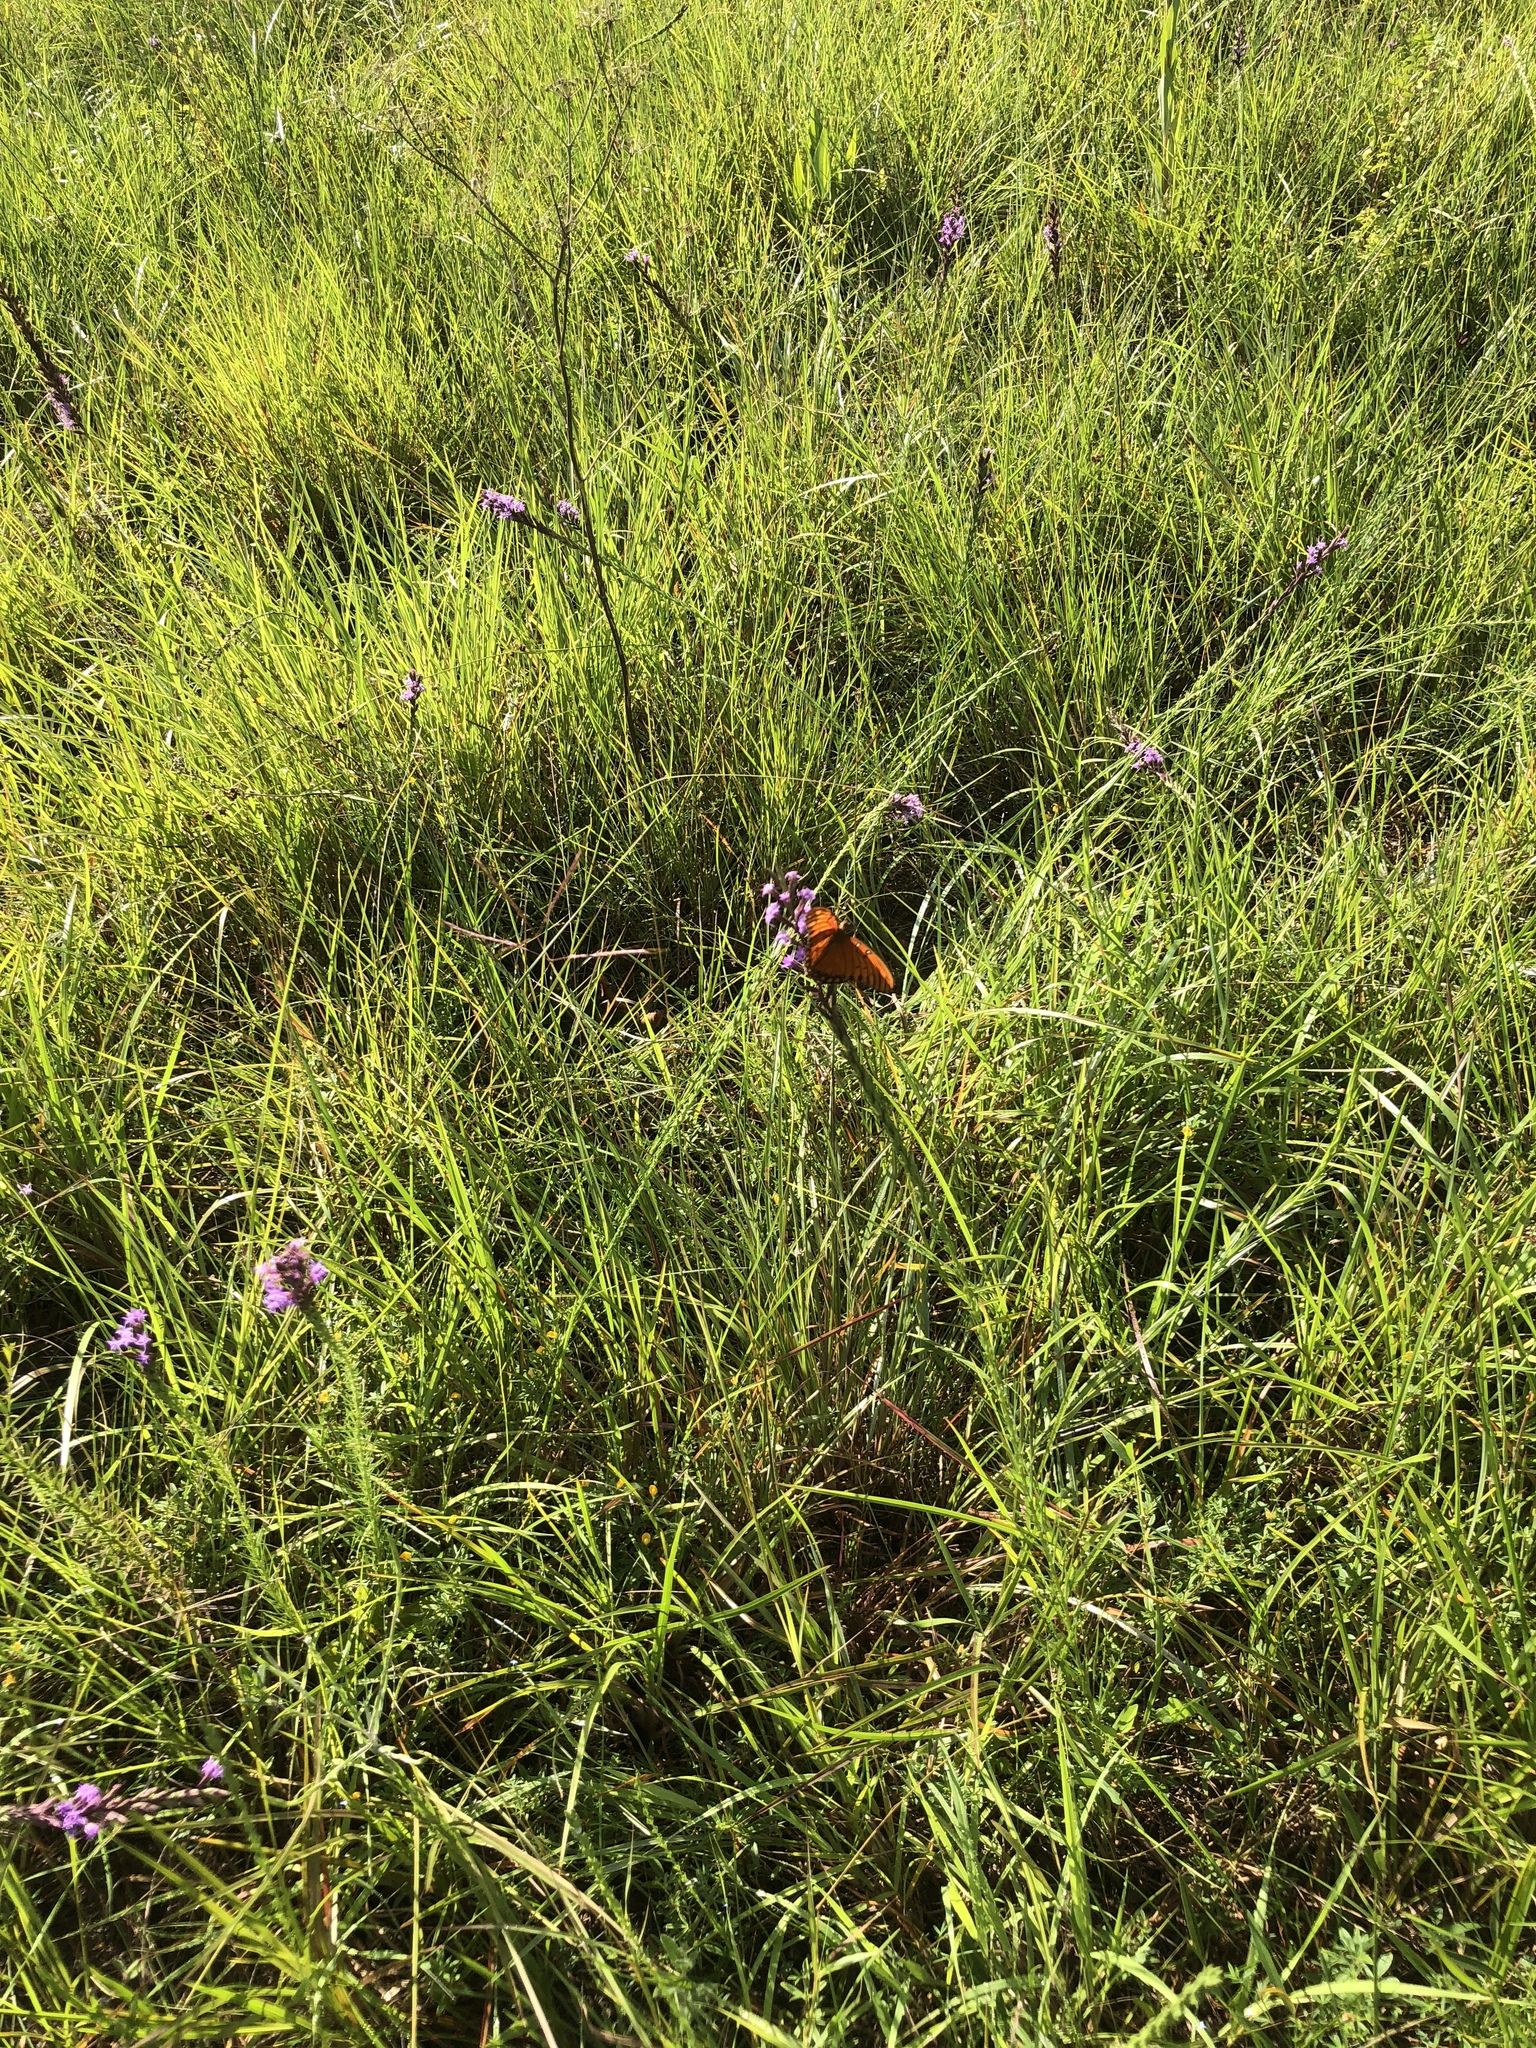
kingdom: Animalia
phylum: Arthropoda
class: Insecta
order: Lepidoptera
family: Nymphalidae
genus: Dione
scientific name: Dione vanillae
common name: Gulf fritillary
